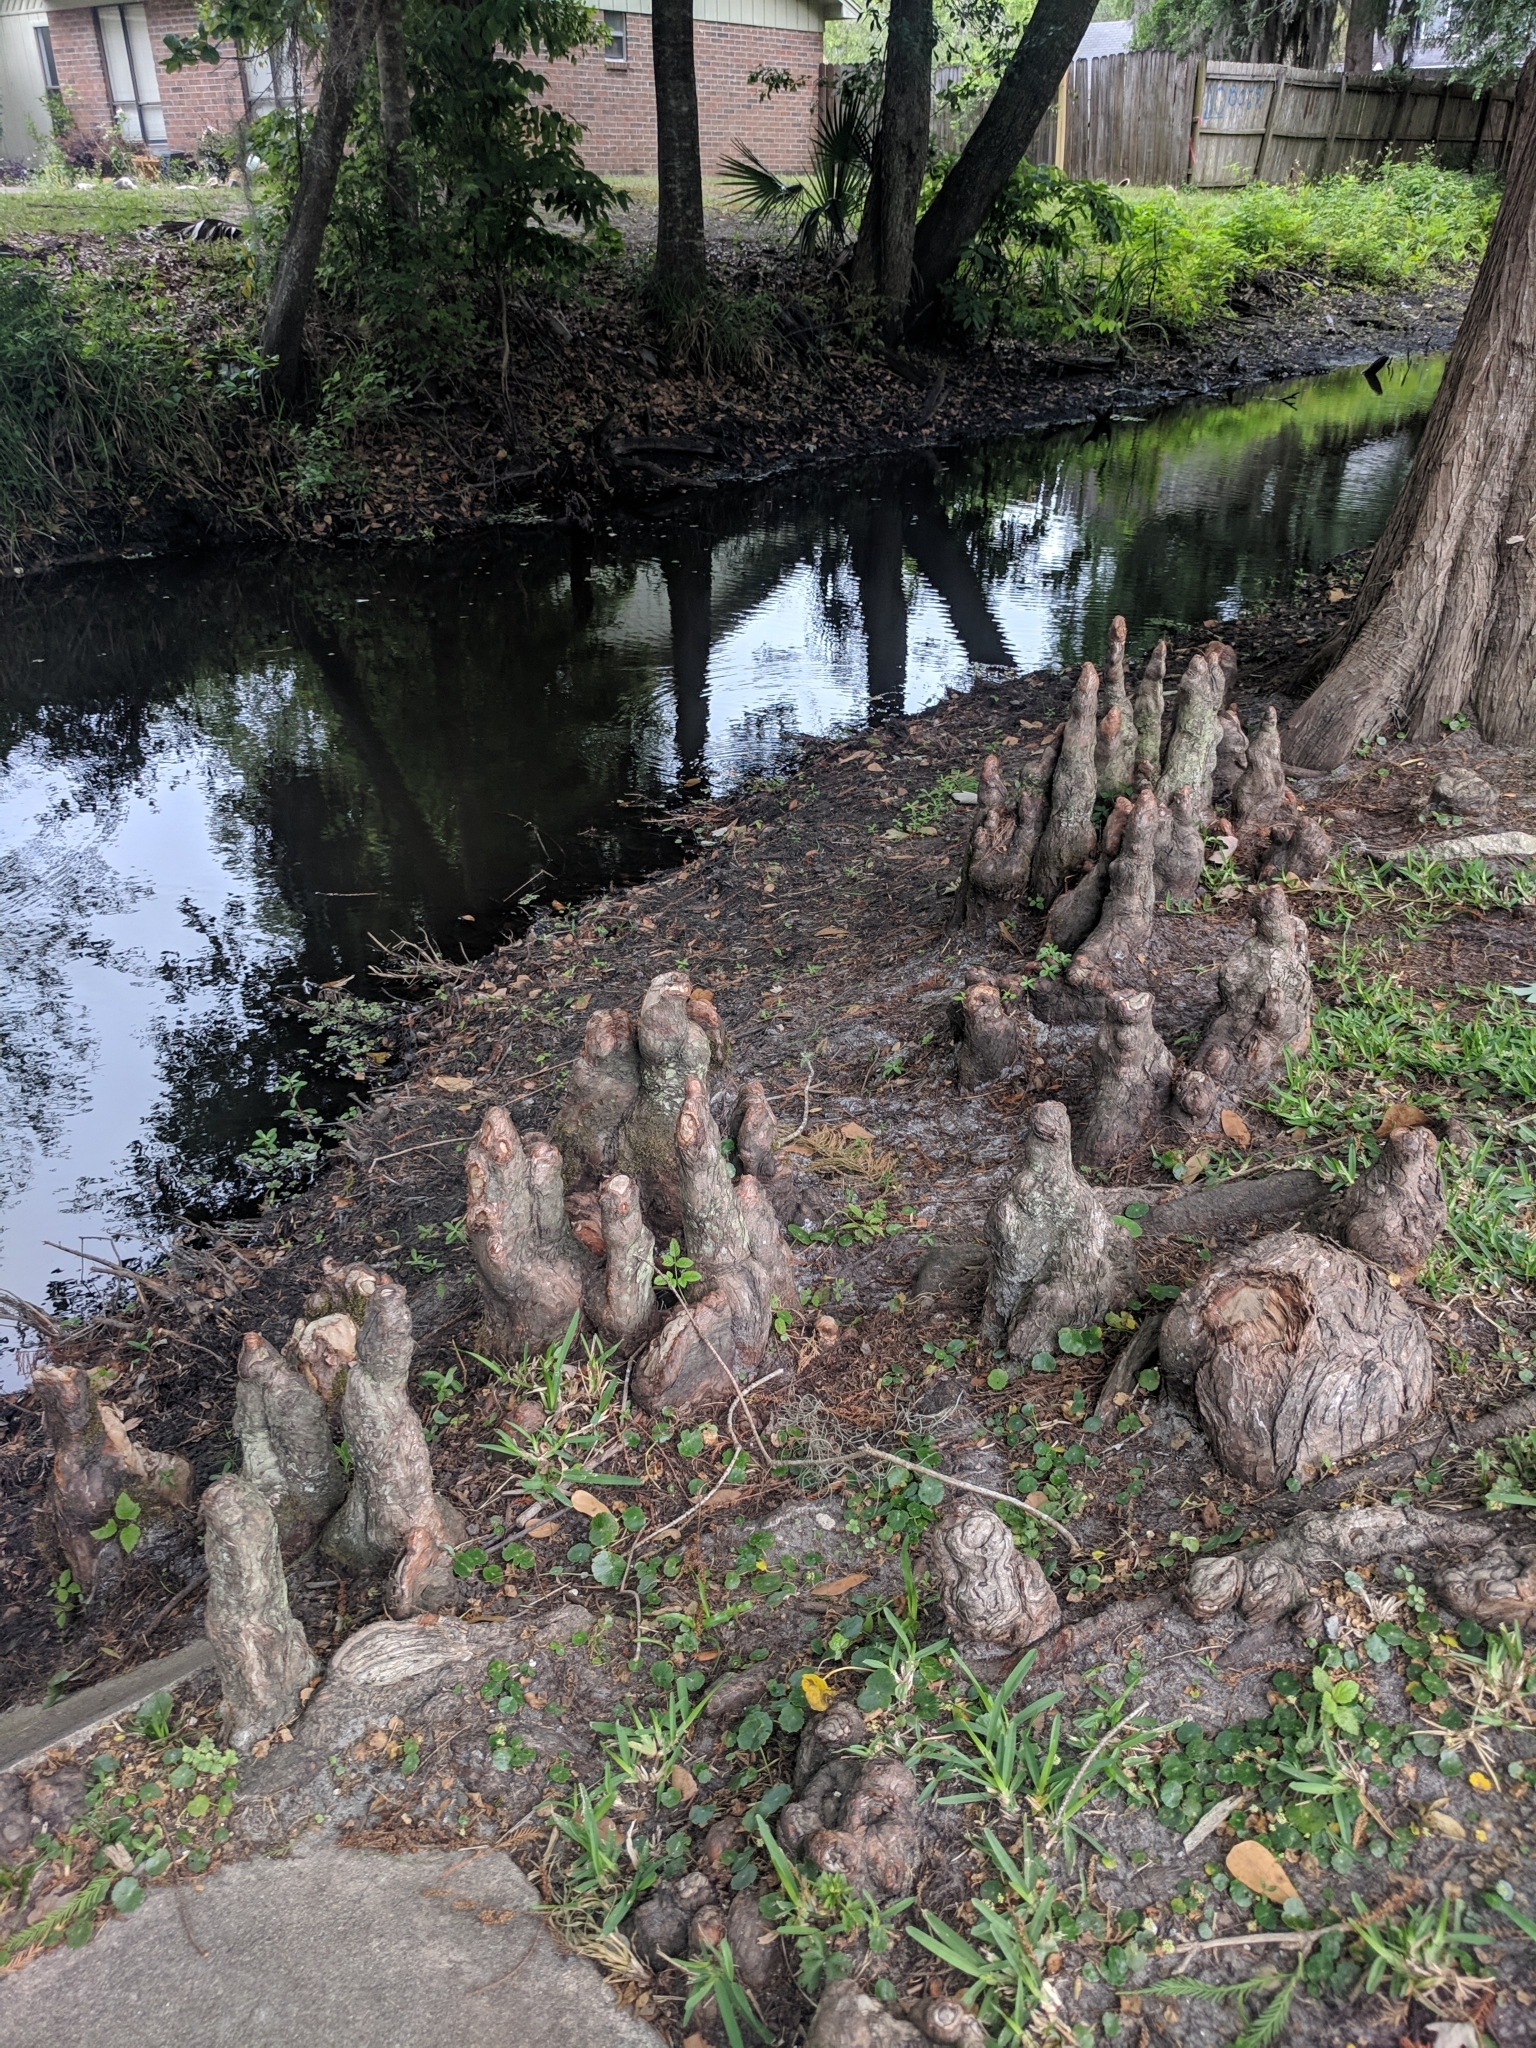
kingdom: Plantae
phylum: Tracheophyta
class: Pinopsida
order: Pinales
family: Cupressaceae
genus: Taxodium
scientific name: Taxodium distichum
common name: Bald cypress
